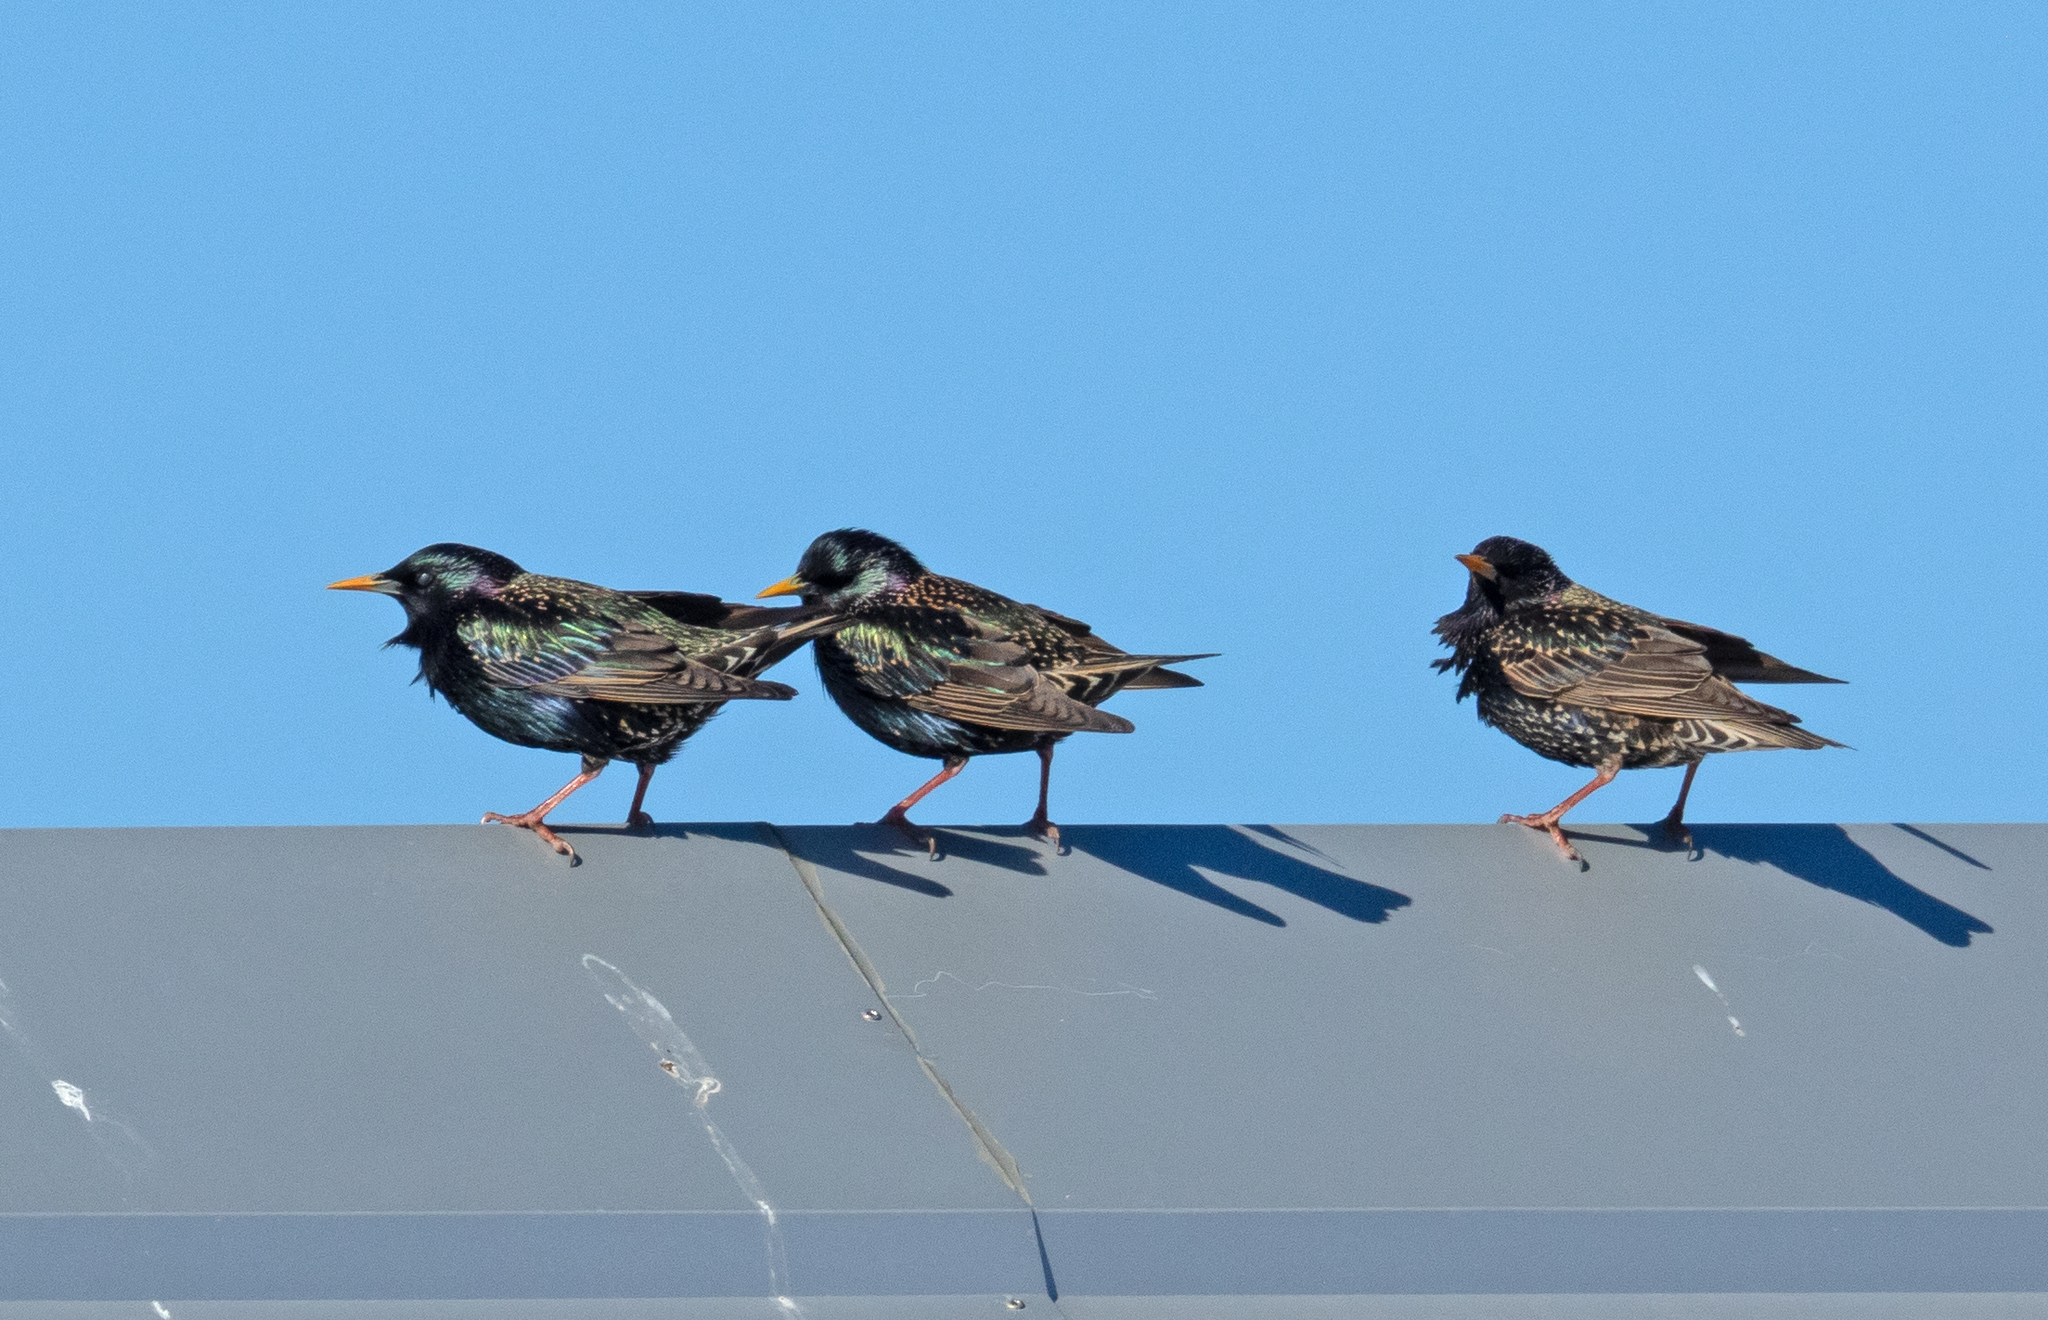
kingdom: Animalia
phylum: Chordata
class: Aves
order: Passeriformes
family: Sturnidae
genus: Sturnus
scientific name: Sturnus vulgaris
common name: Common starling
